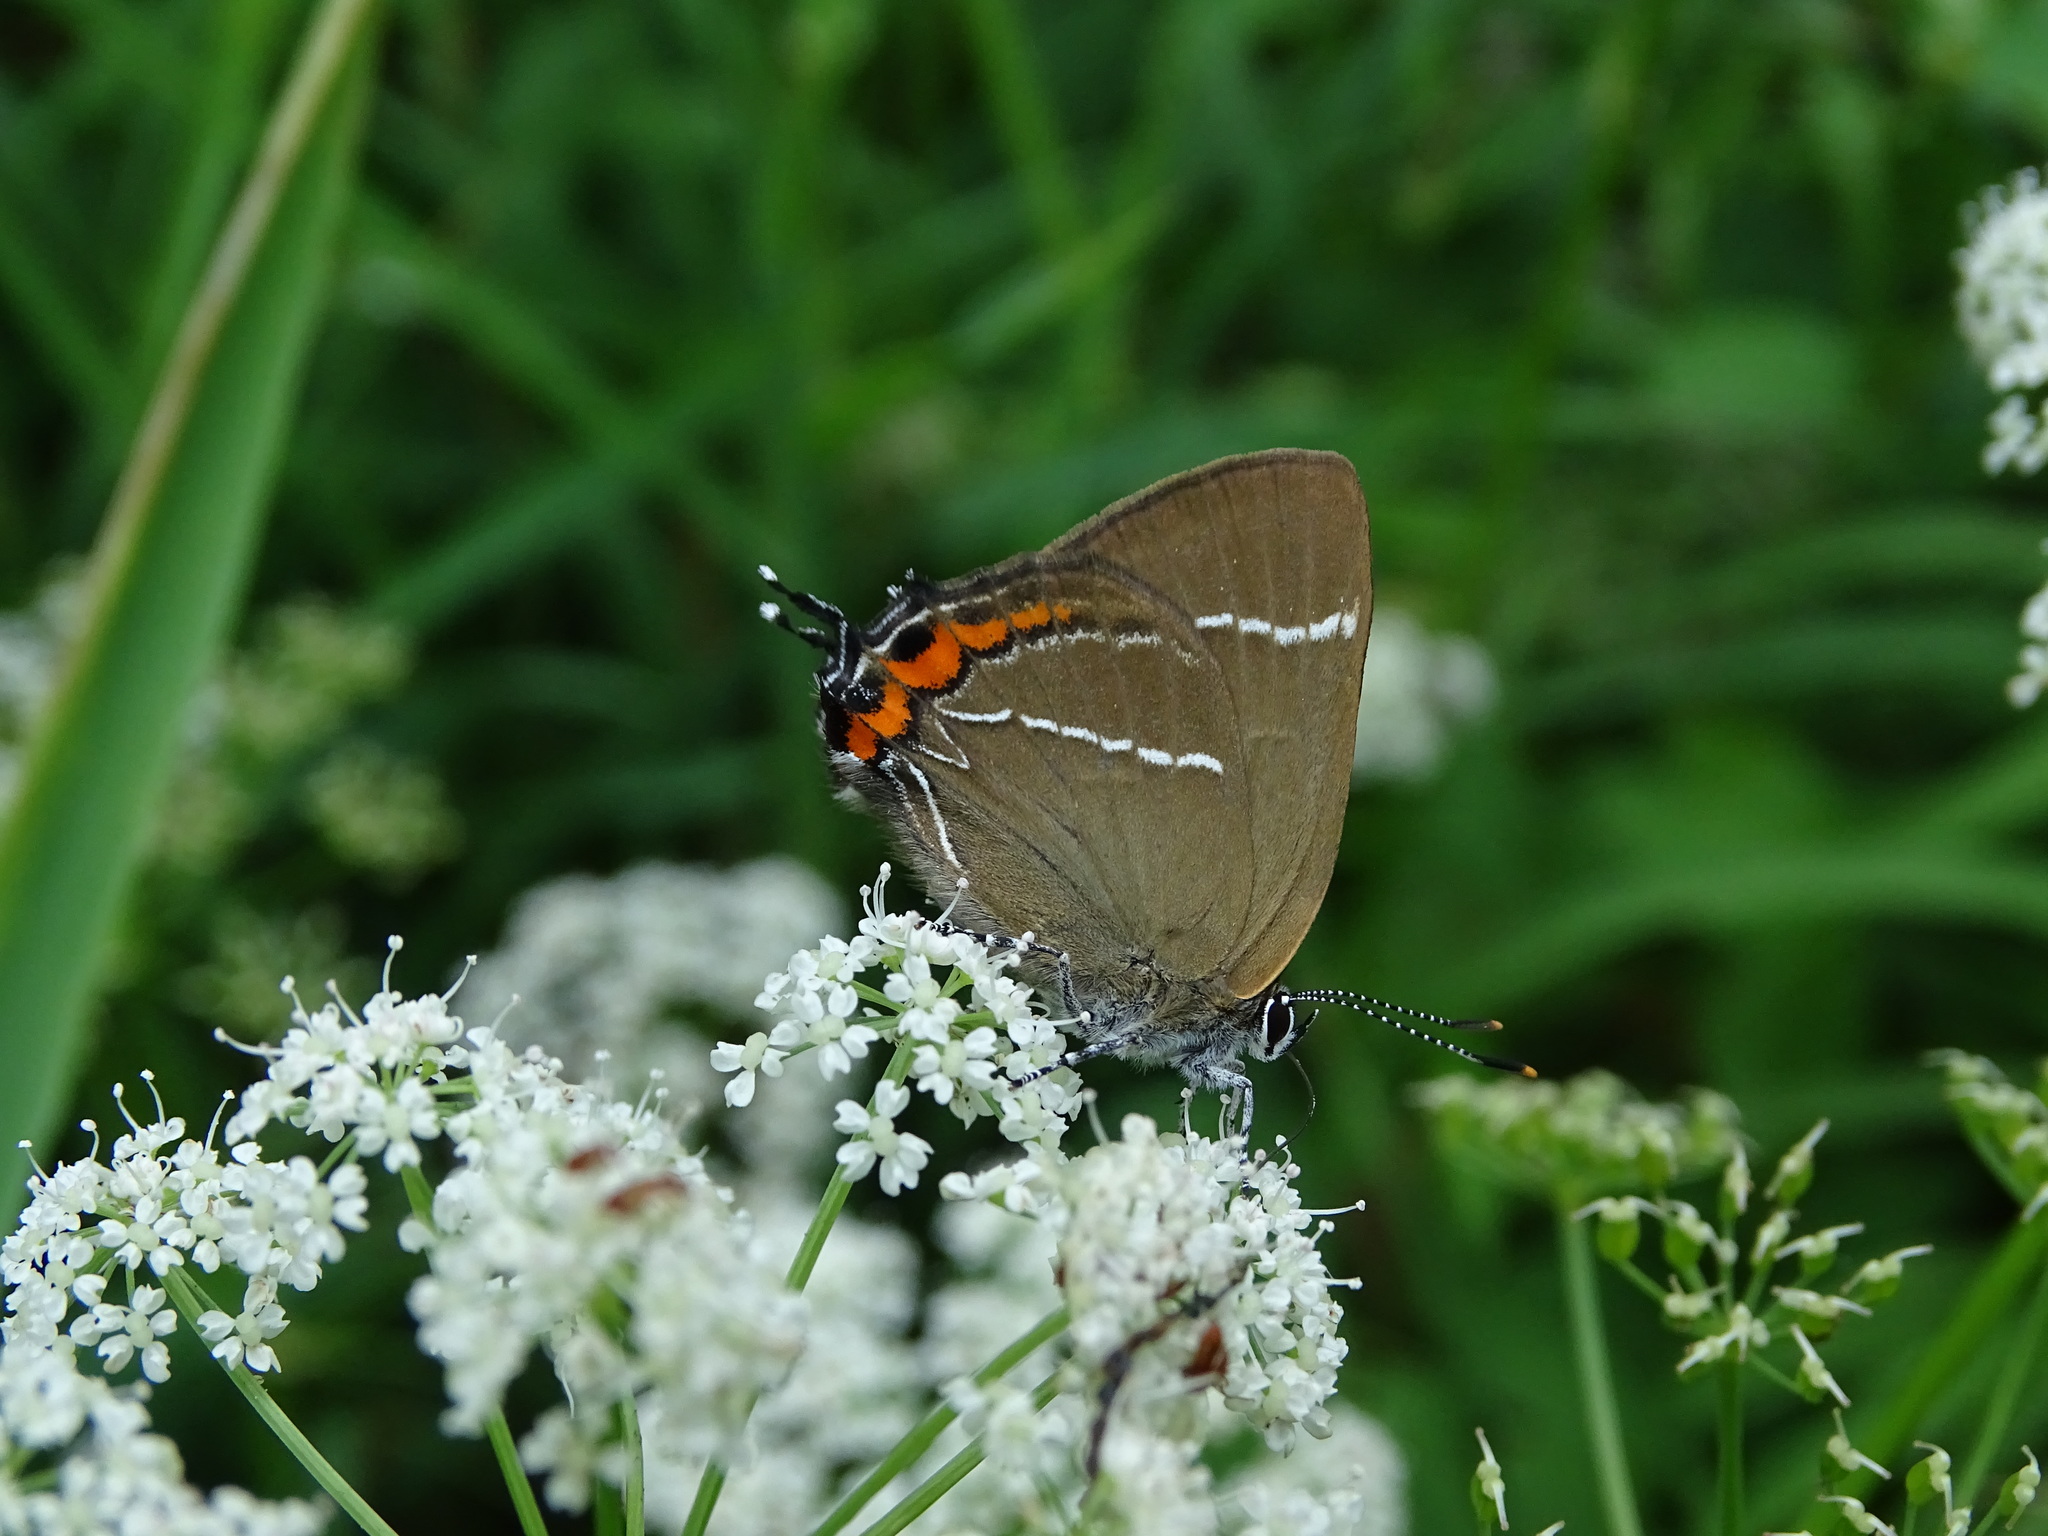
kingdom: Animalia
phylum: Arthropoda
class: Insecta
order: Lepidoptera
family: Lycaenidae
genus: Satyrium
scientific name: Satyrium w-album
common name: White-letter hairstreak
